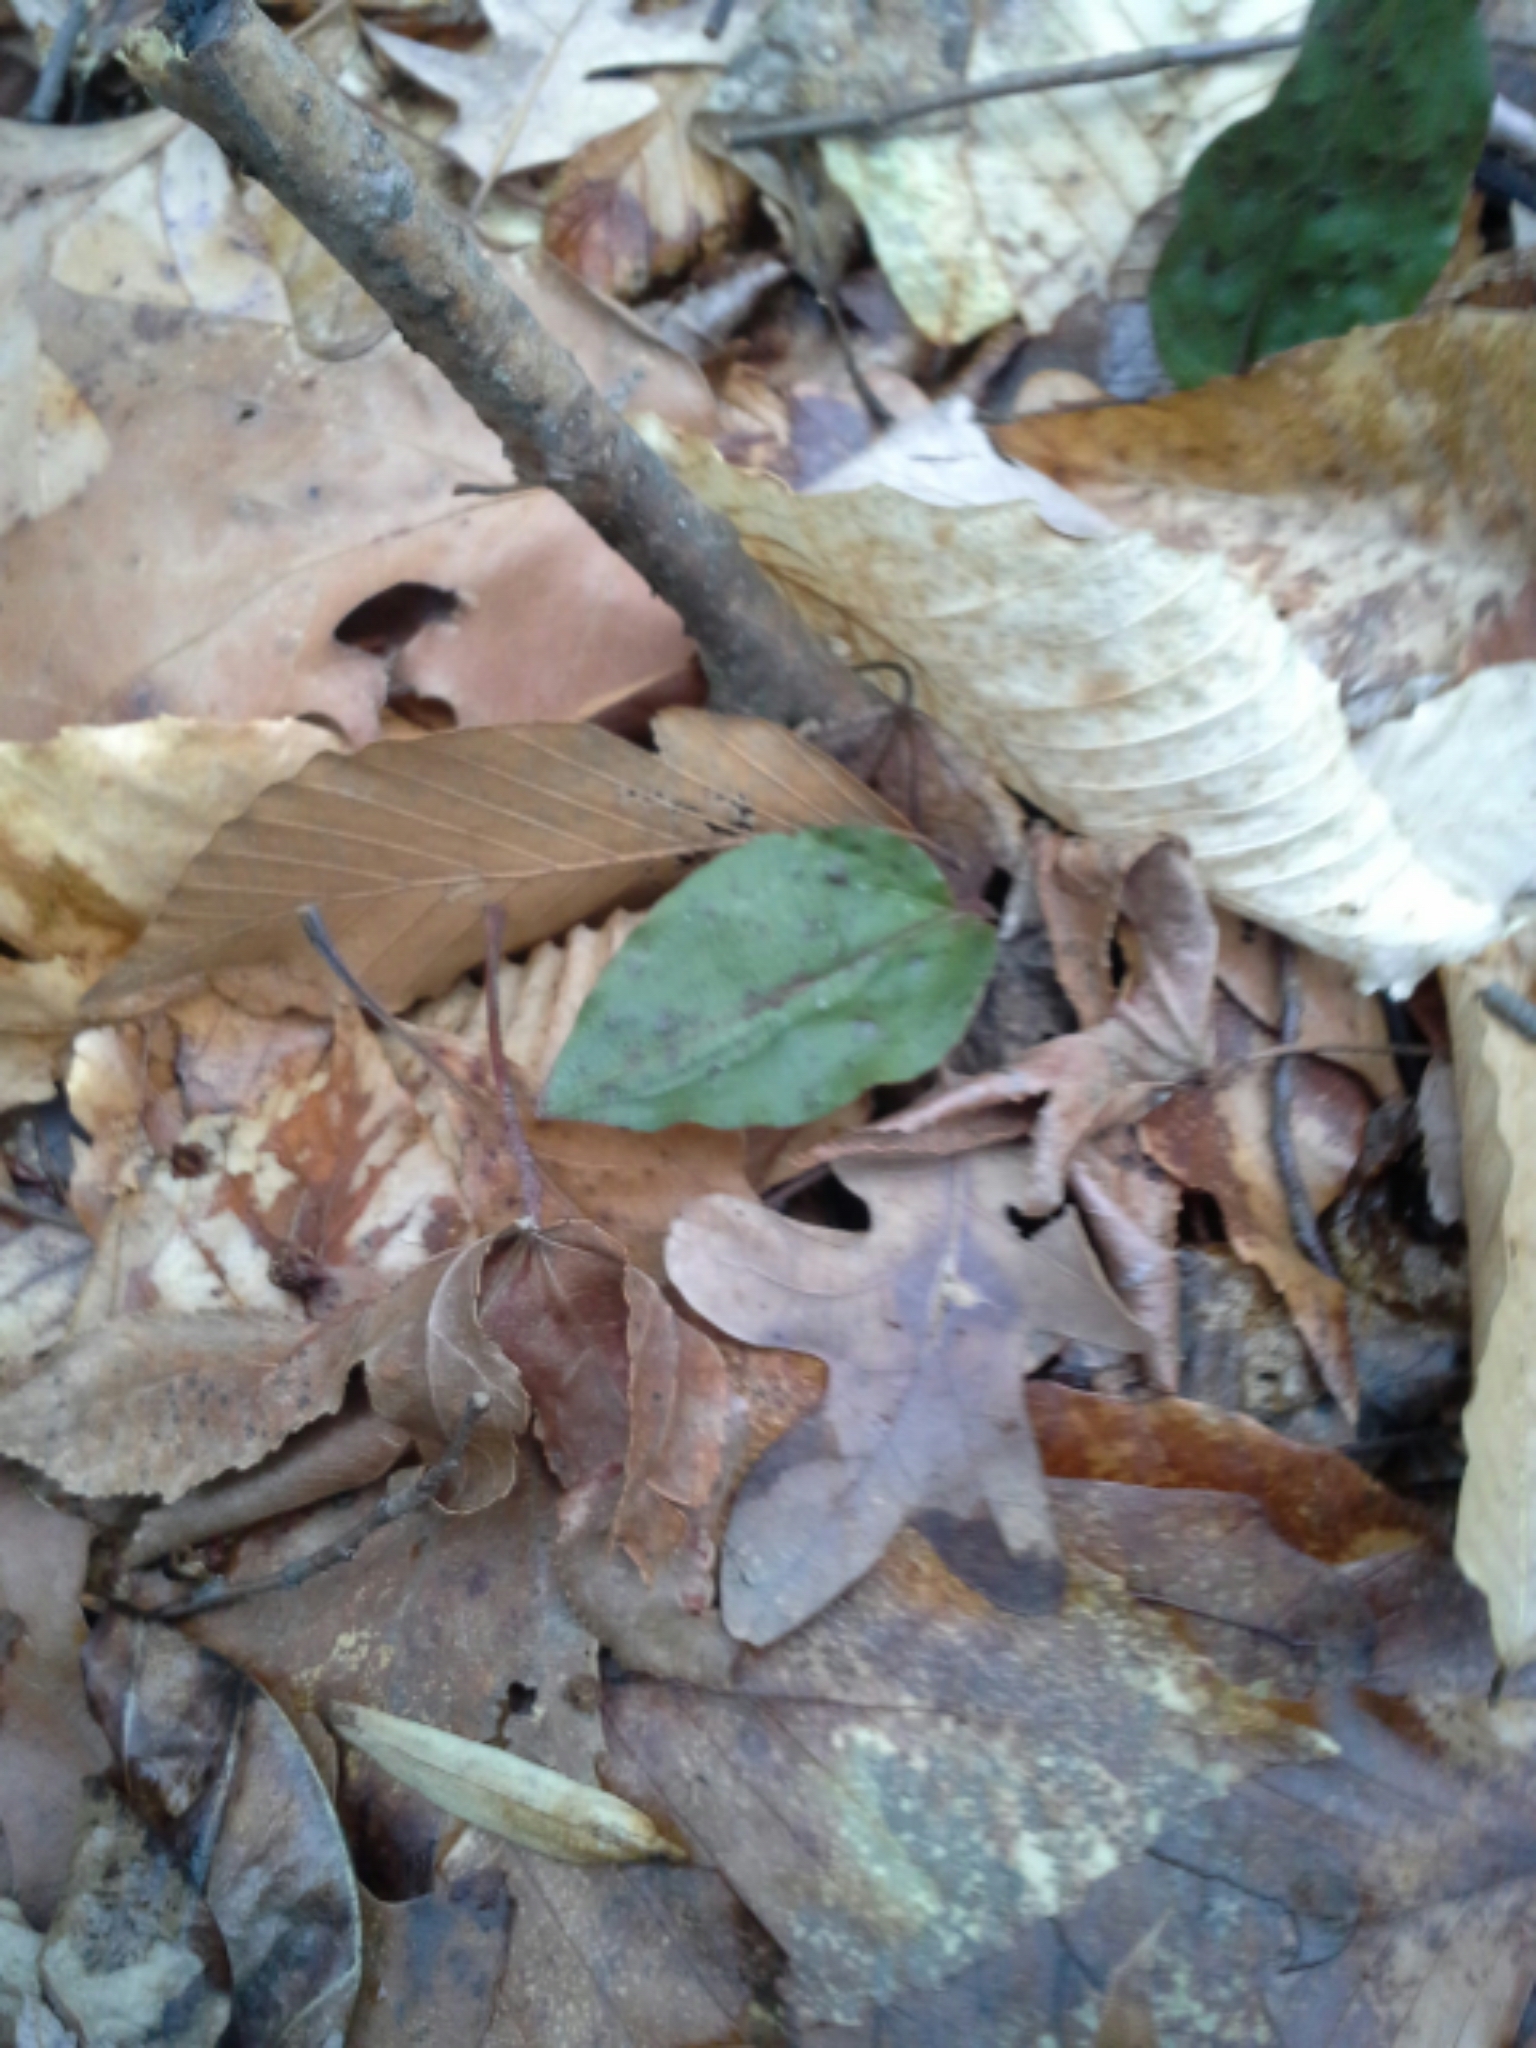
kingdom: Plantae
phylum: Tracheophyta
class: Liliopsida
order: Asparagales
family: Orchidaceae
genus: Tipularia
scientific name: Tipularia discolor
